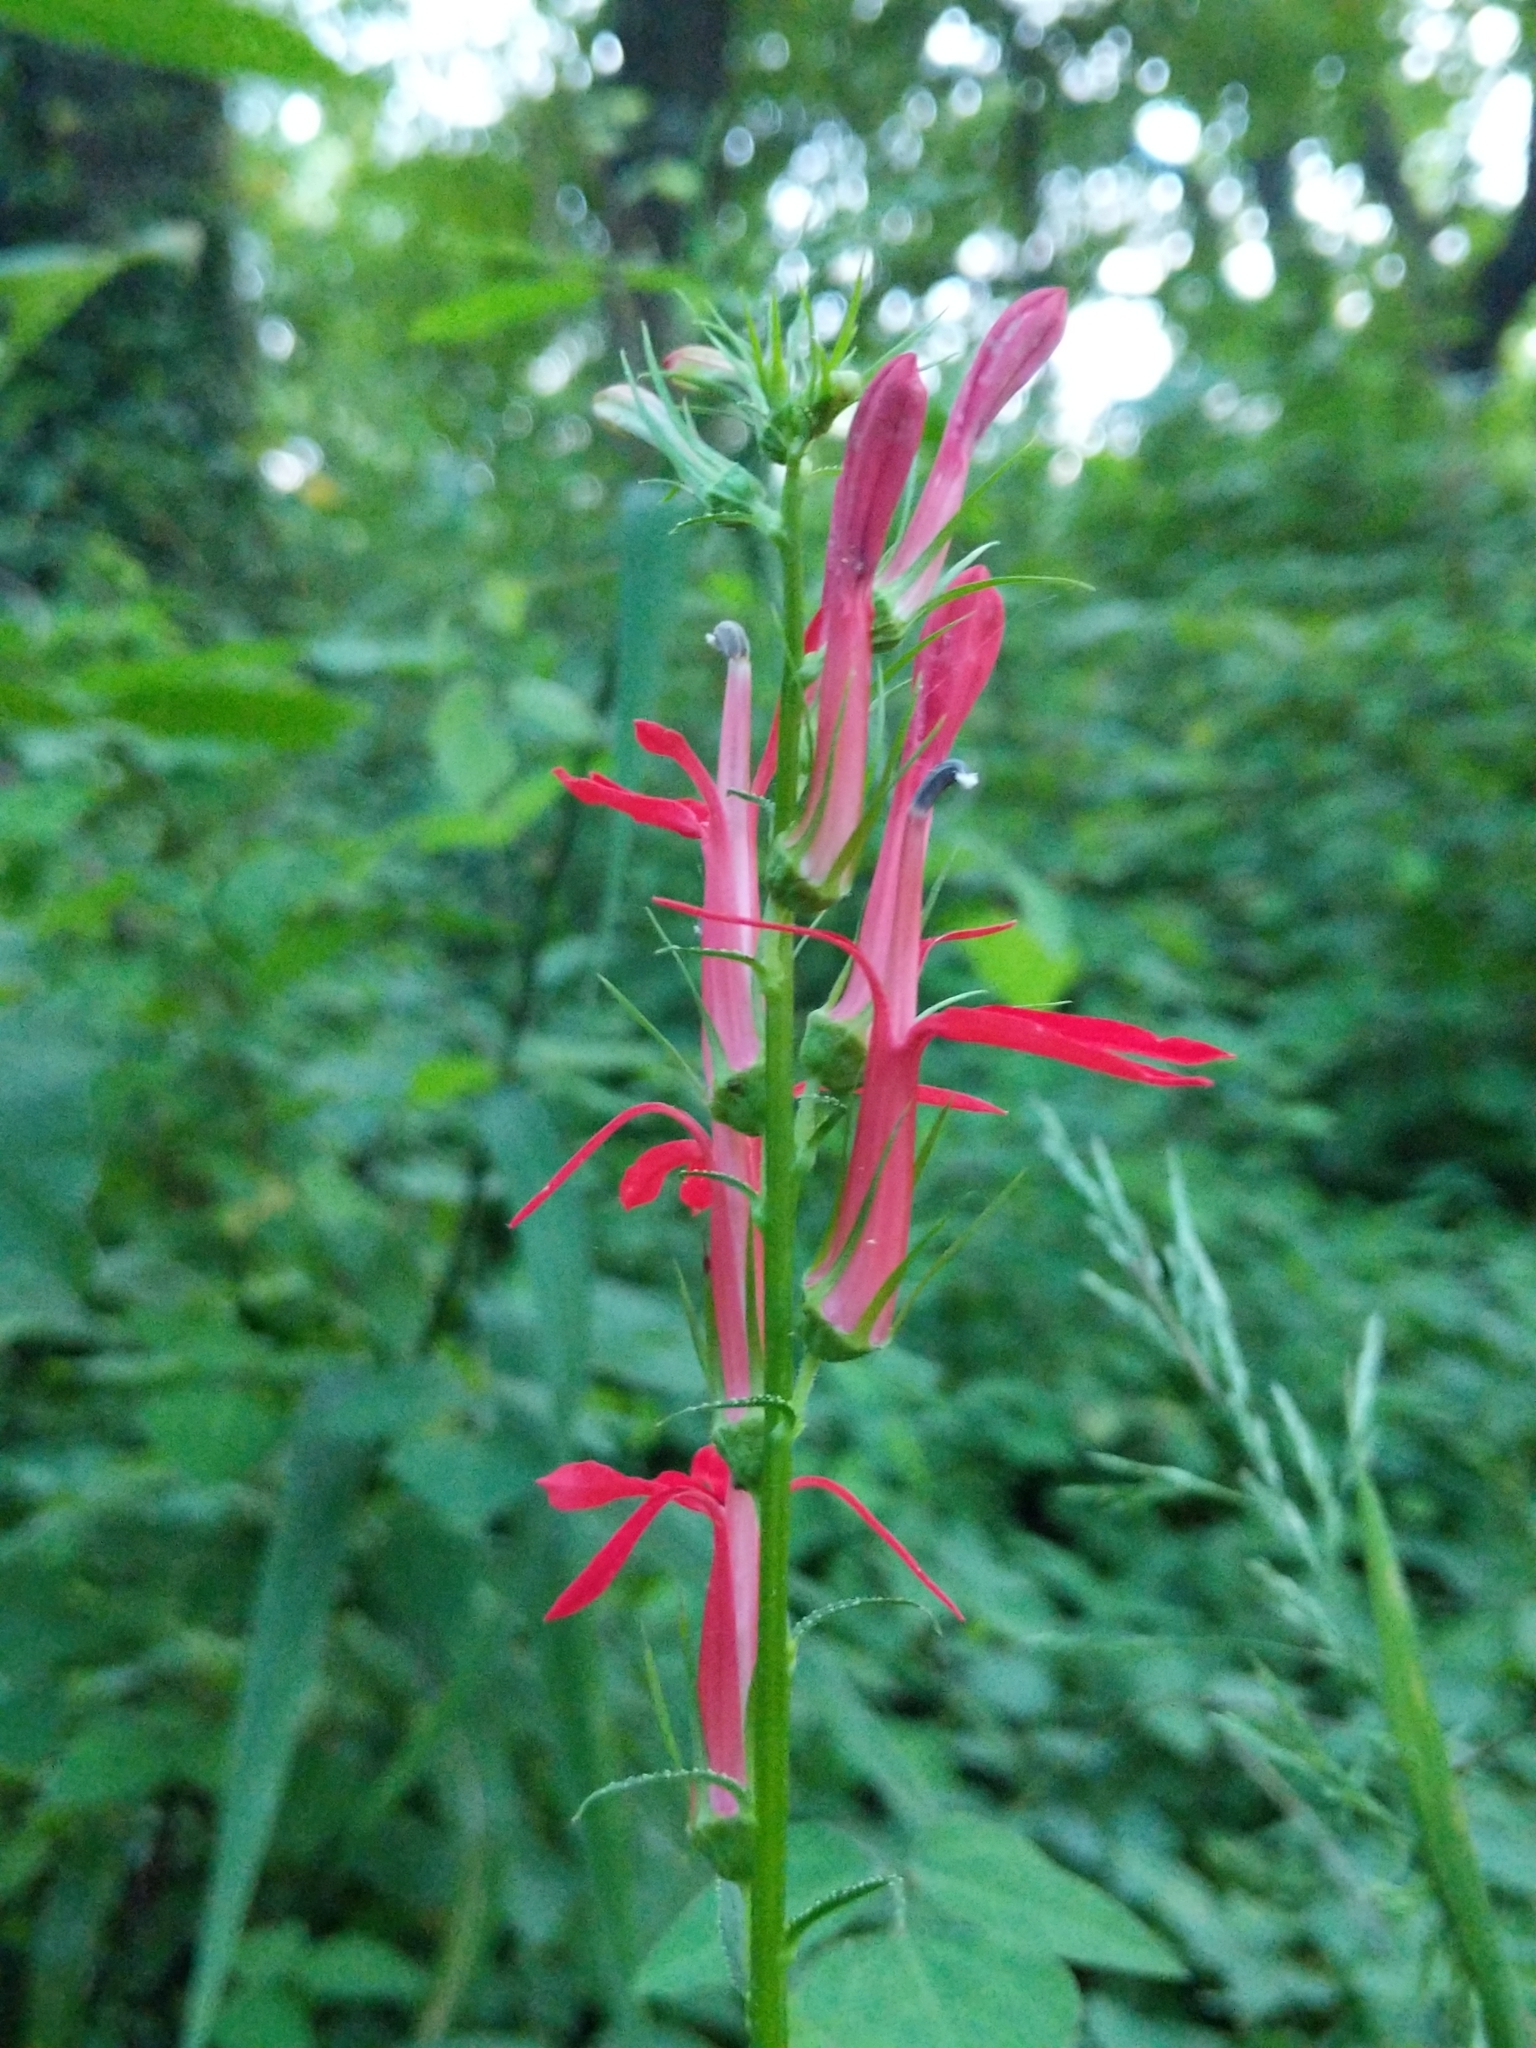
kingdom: Plantae
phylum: Tracheophyta
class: Magnoliopsida
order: Asterales
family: Campanulaceae
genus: Lobelia
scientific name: Lobelia cardinalis
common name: Cardinal flower
